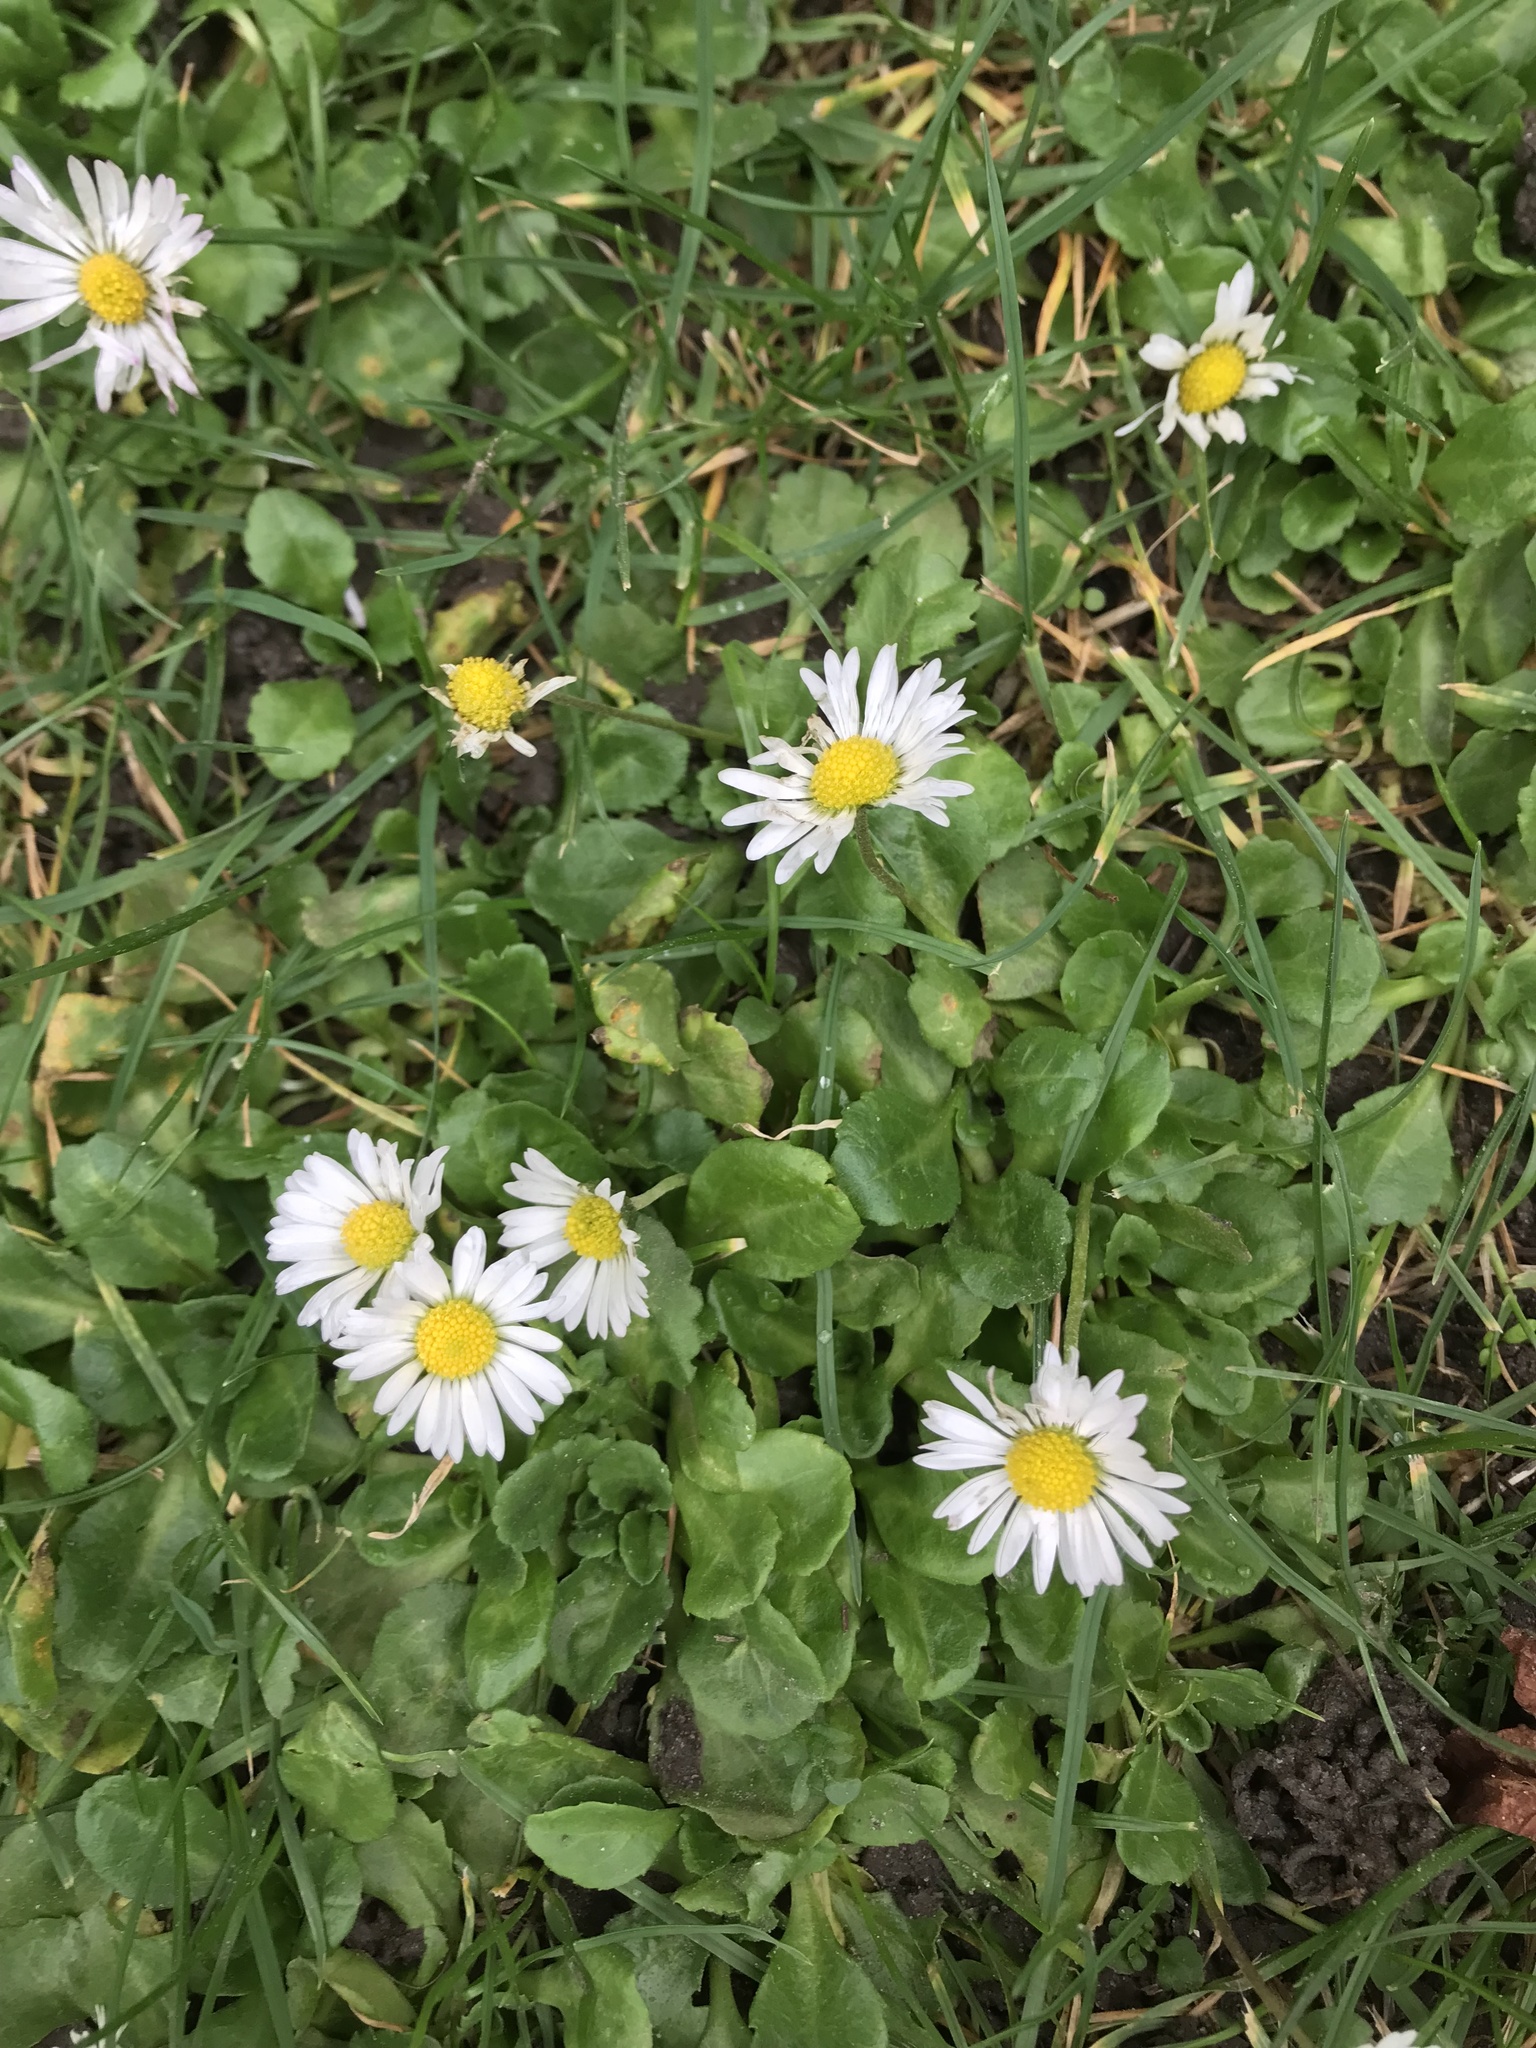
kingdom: Plantae
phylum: Tracheophyta
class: Magnoliopsida
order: Asterales
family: Asteraceae
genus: Bellis
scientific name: Bellis perennis
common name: Lawndaisy
